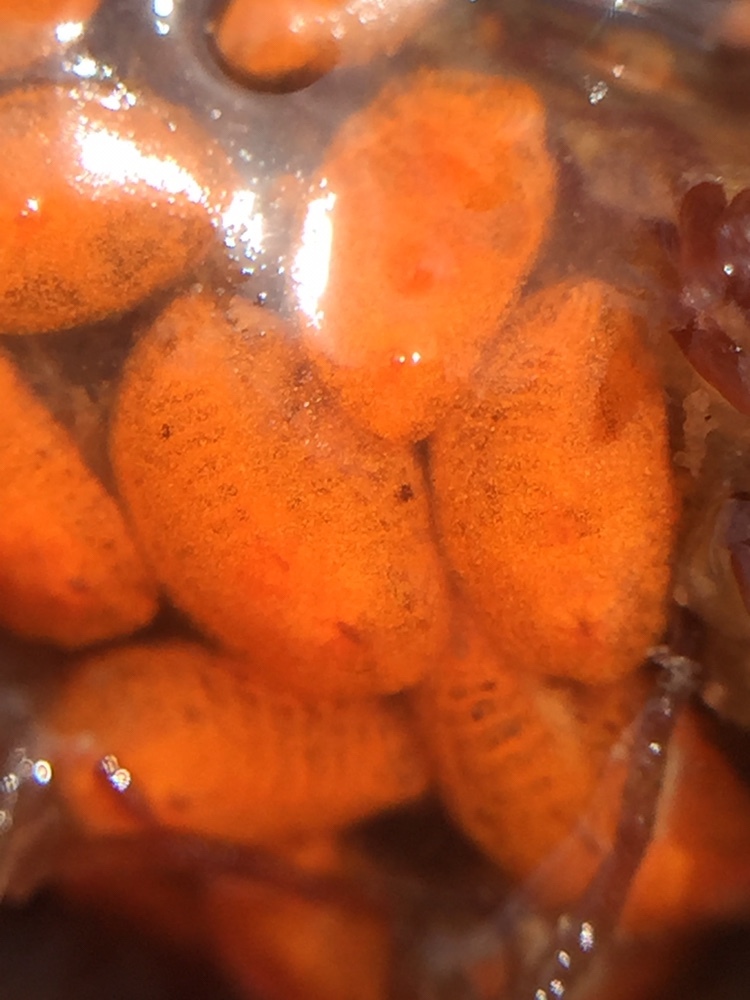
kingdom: Animalia
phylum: Chordata
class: Ascidiacea
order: Stolidobranchia
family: Styelidae
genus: Symplegma
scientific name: Symplegma brakenhielmi
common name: Ascidian
